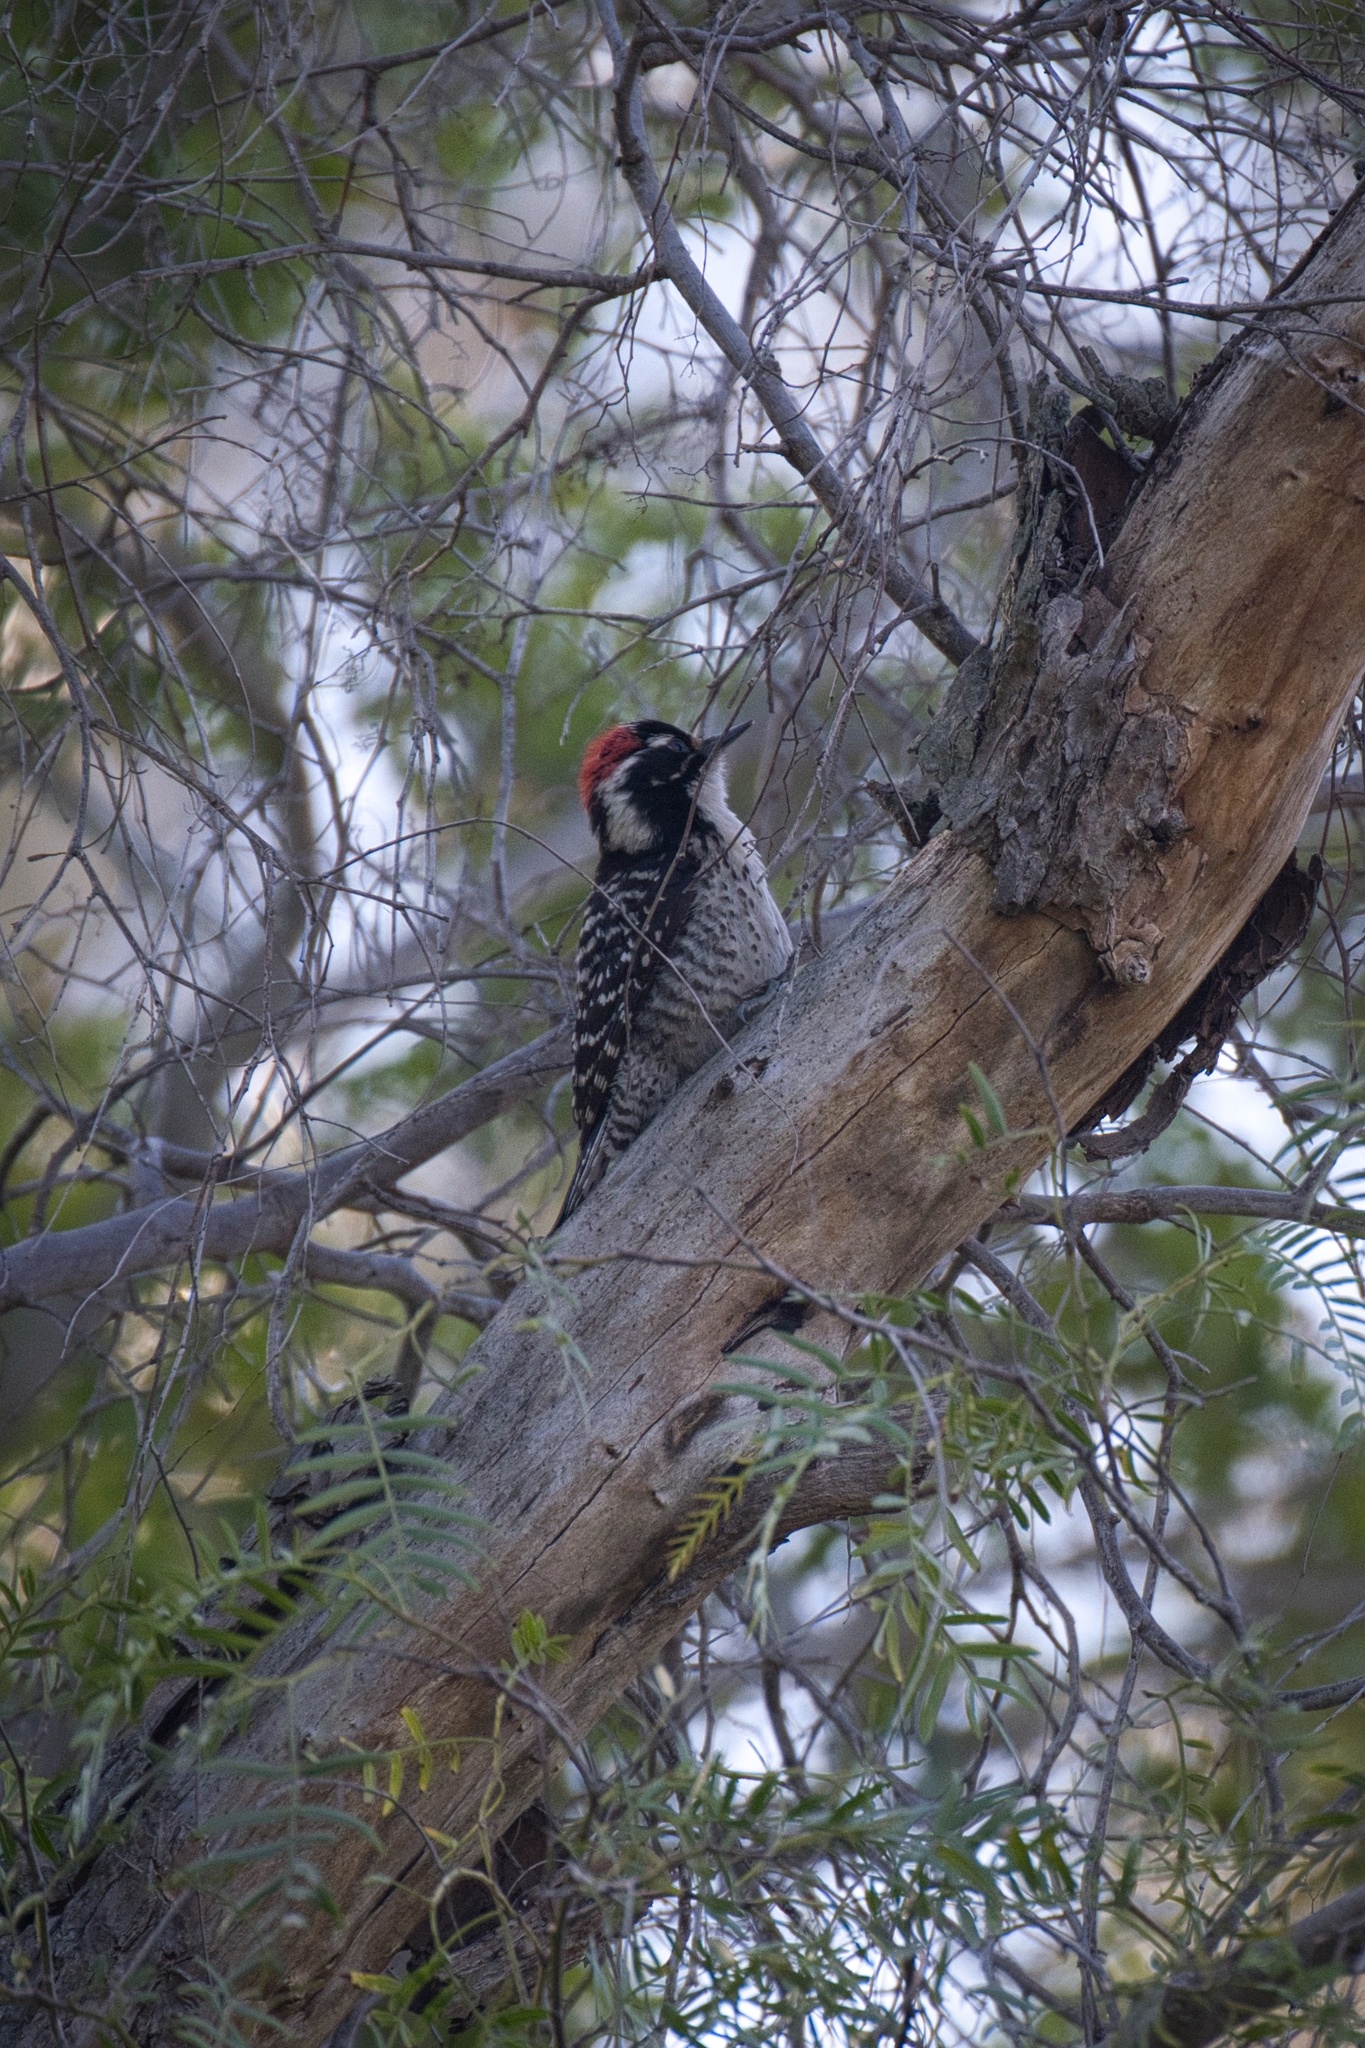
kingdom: Animalia
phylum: Chordata
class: Aves
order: Piciformes
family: Picidae
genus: Dryobates
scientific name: Dryobates nuttallii
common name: Nuttall's woodpecker
